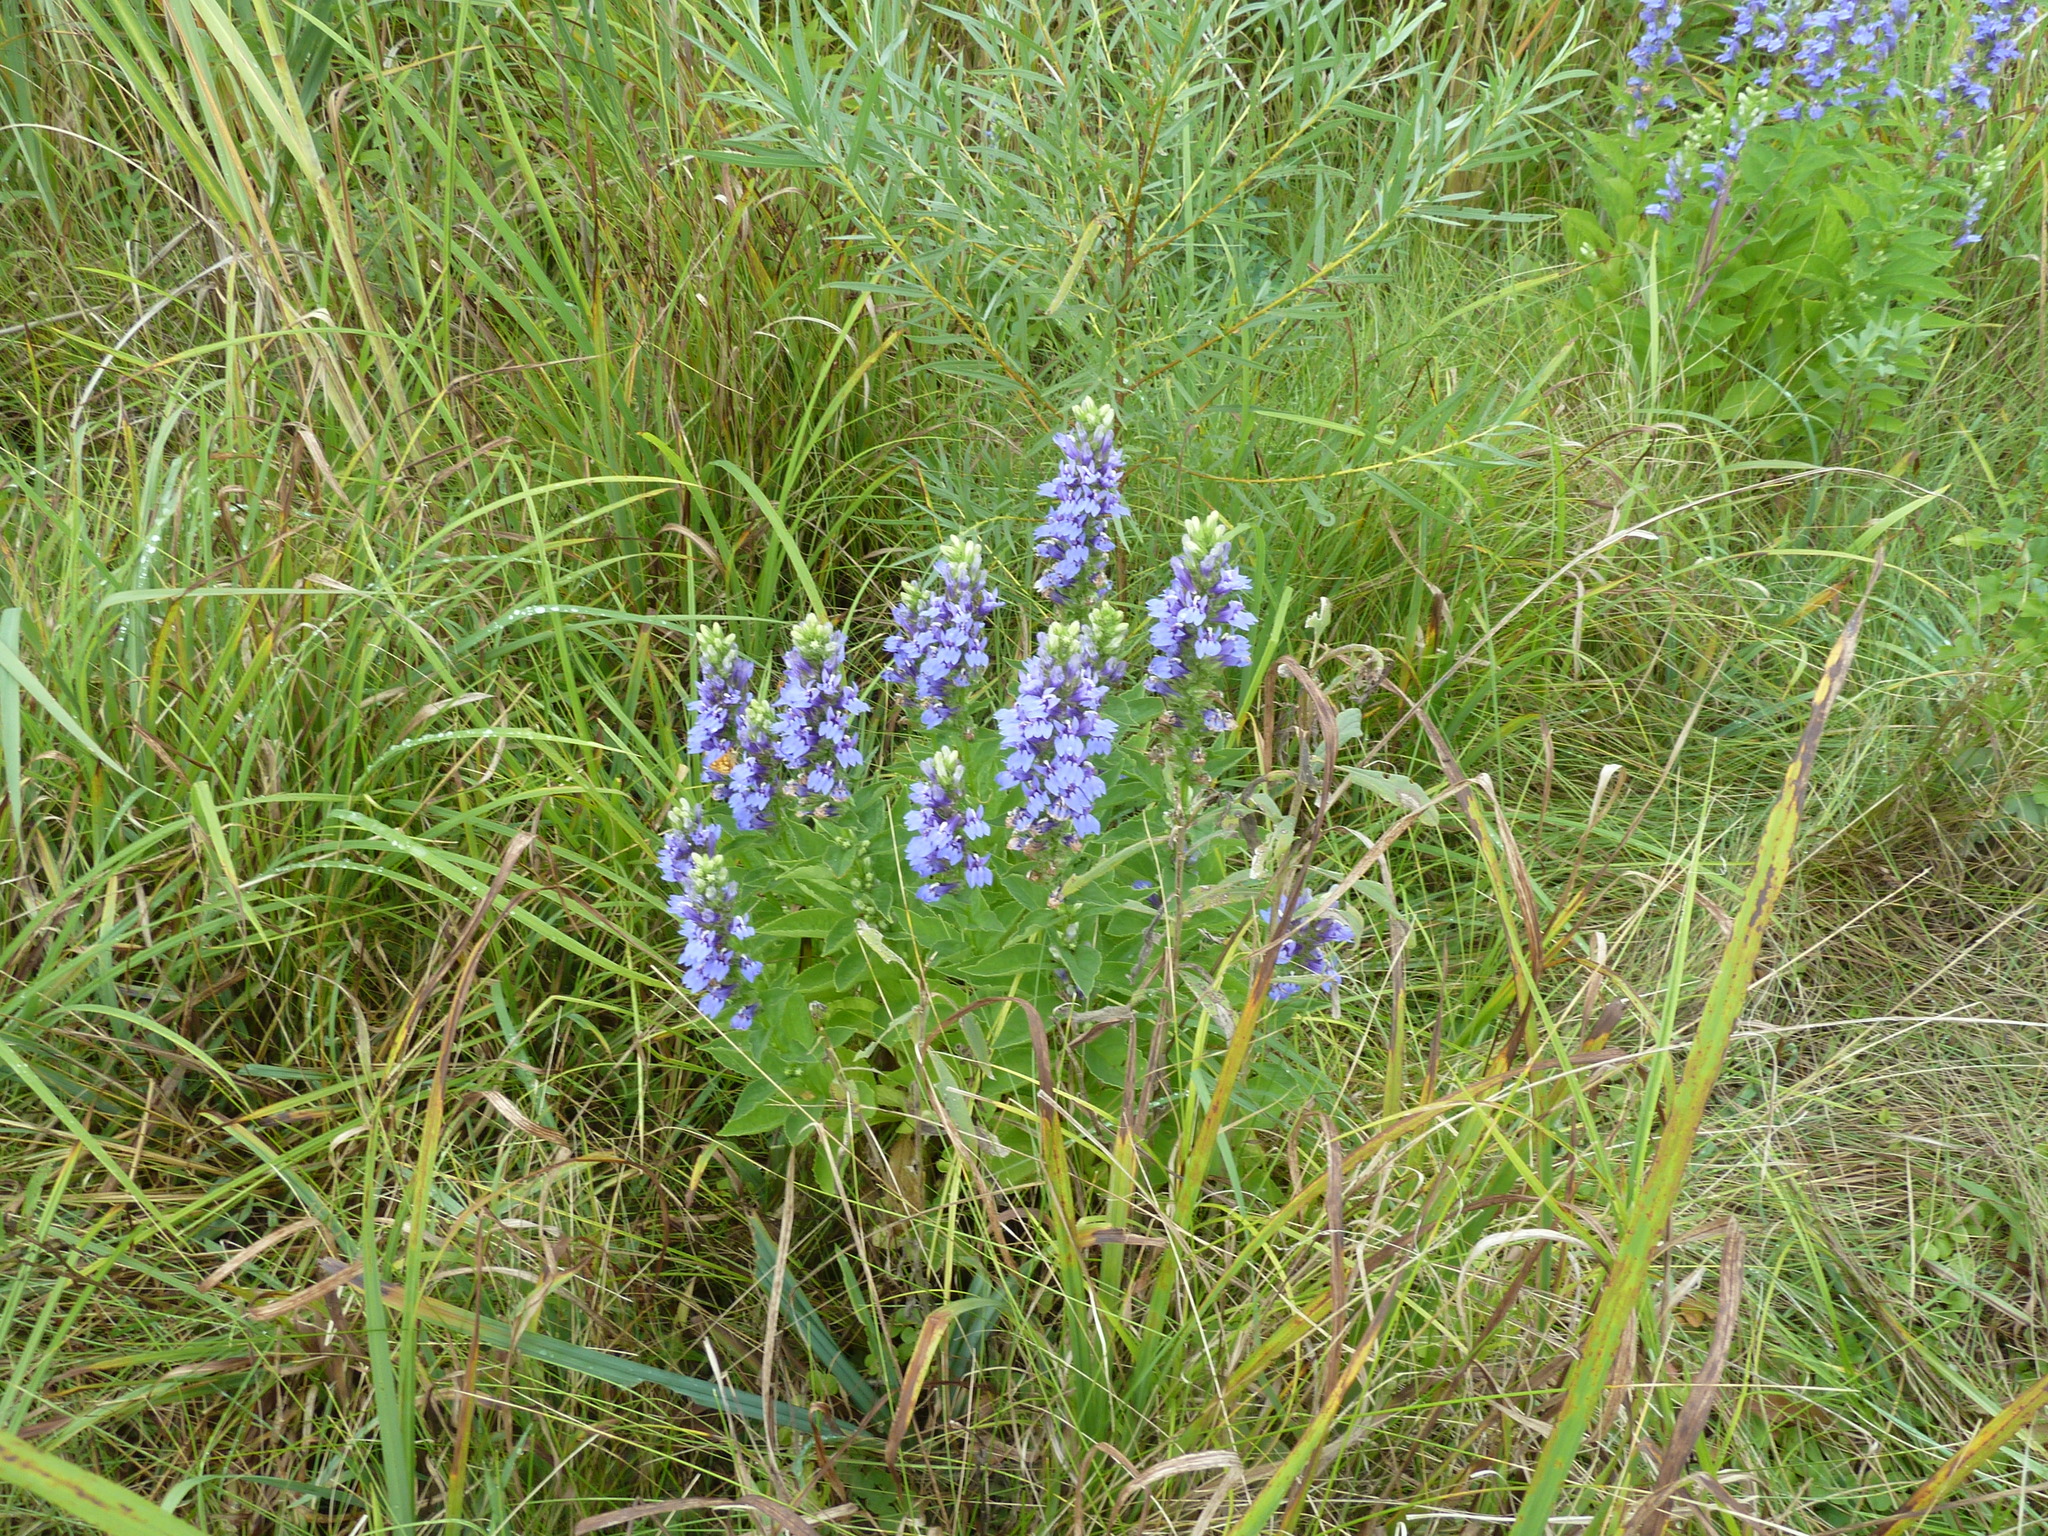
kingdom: Plantae
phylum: Tracheophyta
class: Magnoliopsida
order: Asterales
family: Campanulaceae
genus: Lobelia
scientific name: Lobelia siphilitica
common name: Great lobelia
